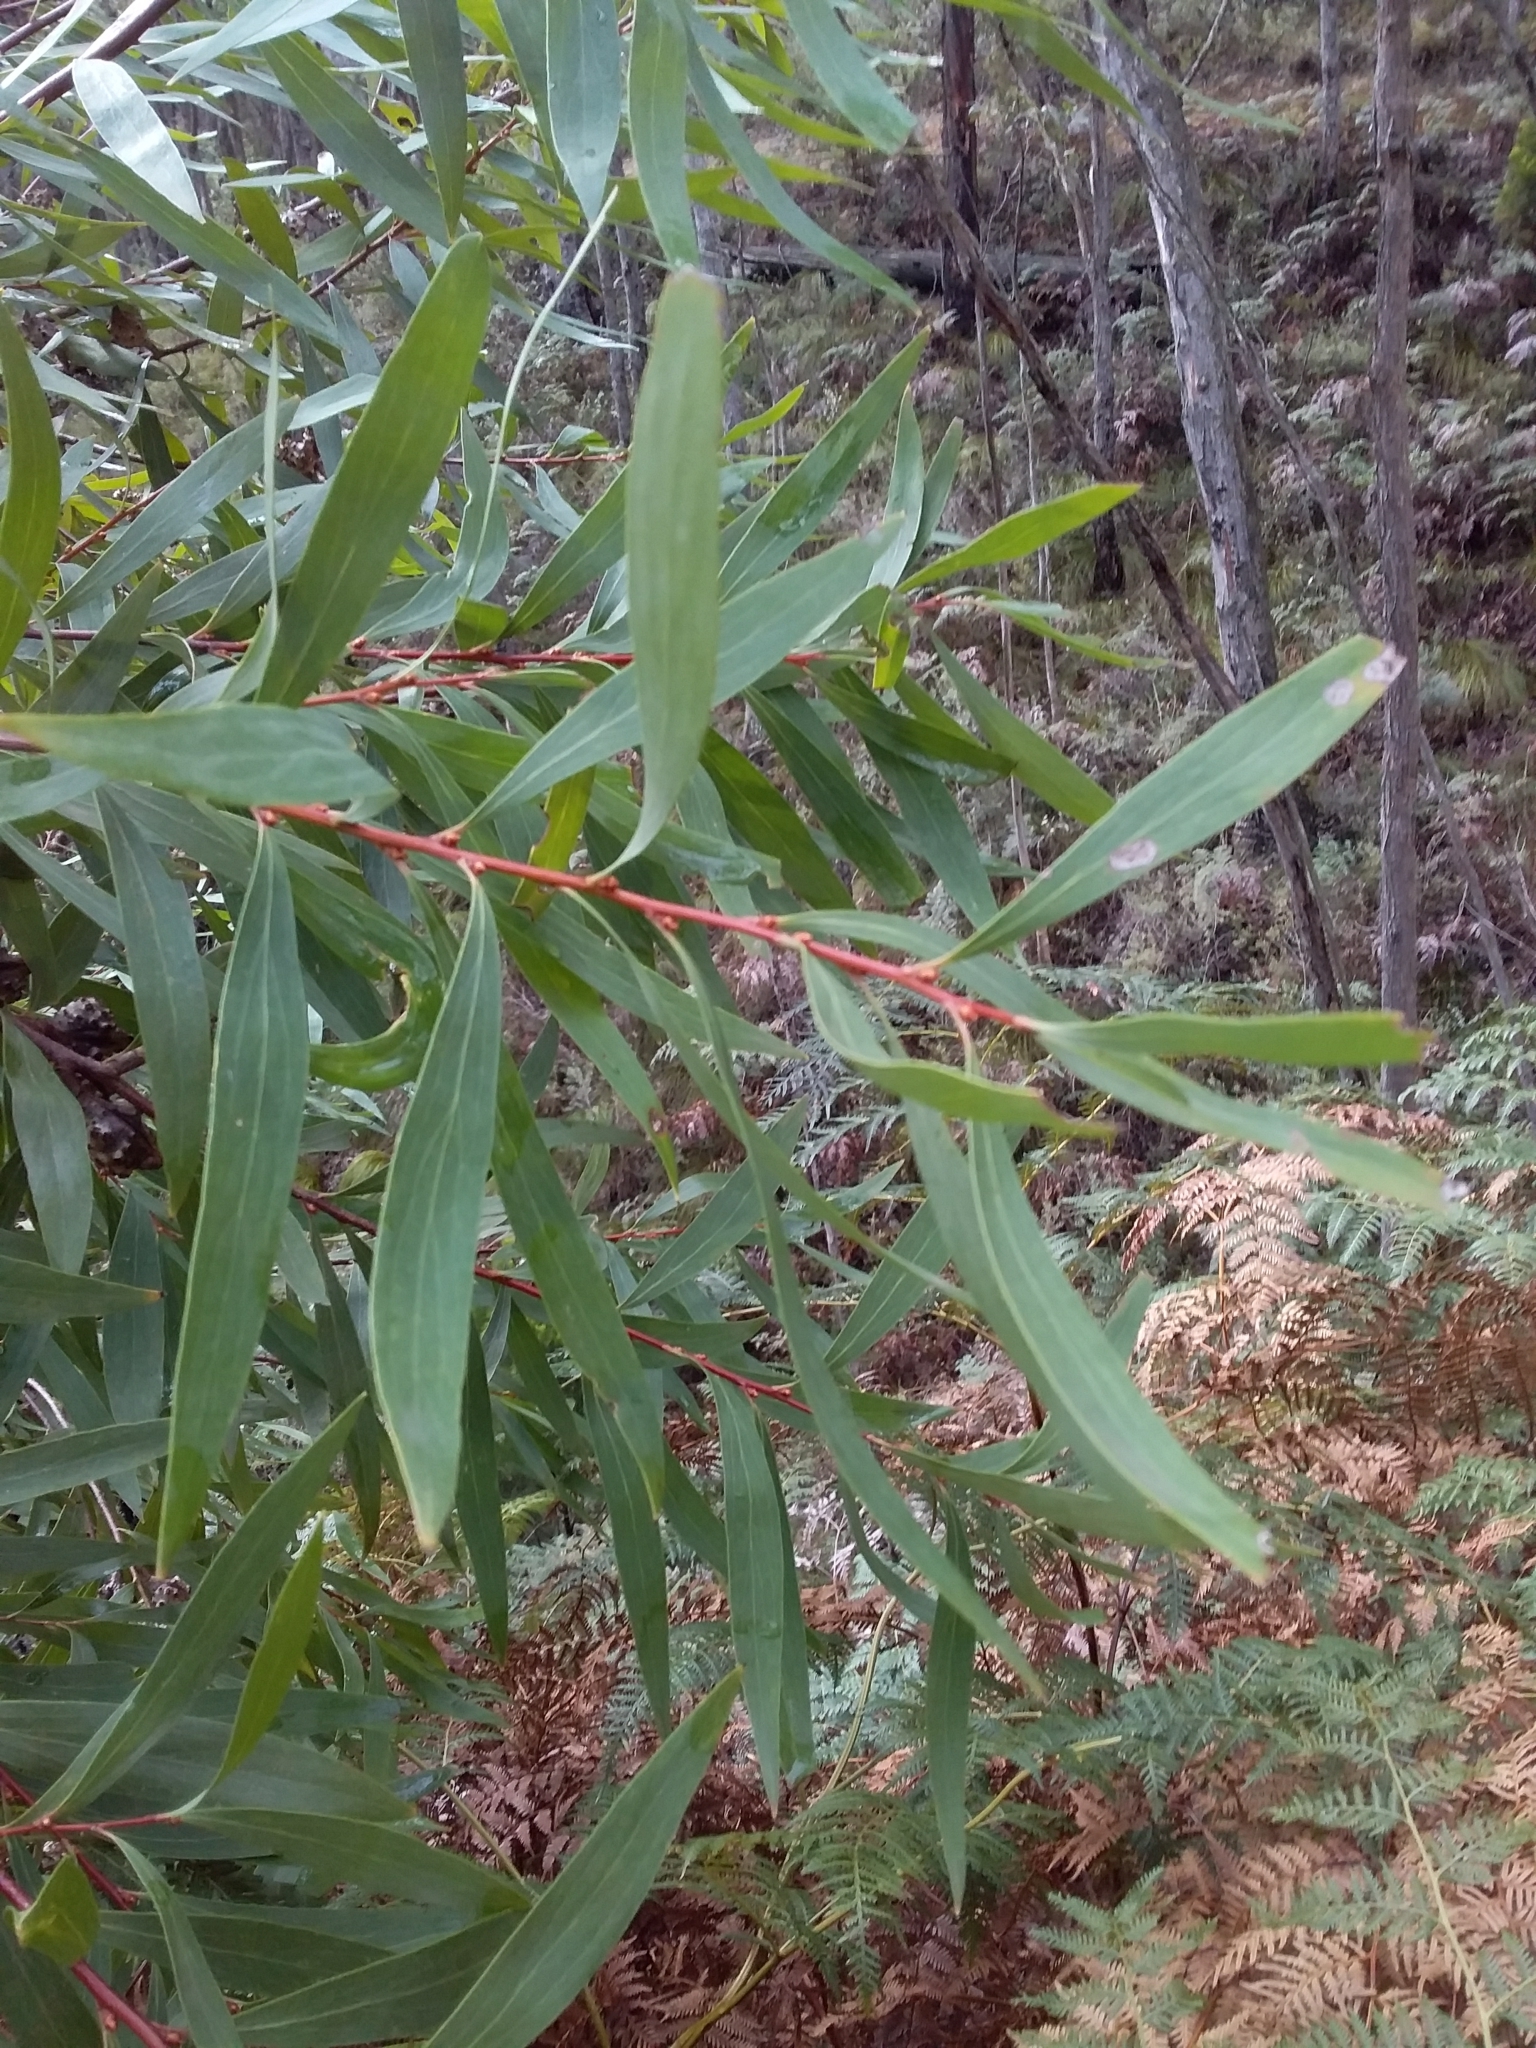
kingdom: Plantae
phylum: Tracheophyta
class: Magnoliopsida
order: Proteales
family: Proteaceae
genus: Hakea
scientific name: Hakea salicifolia
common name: Willow hakea
